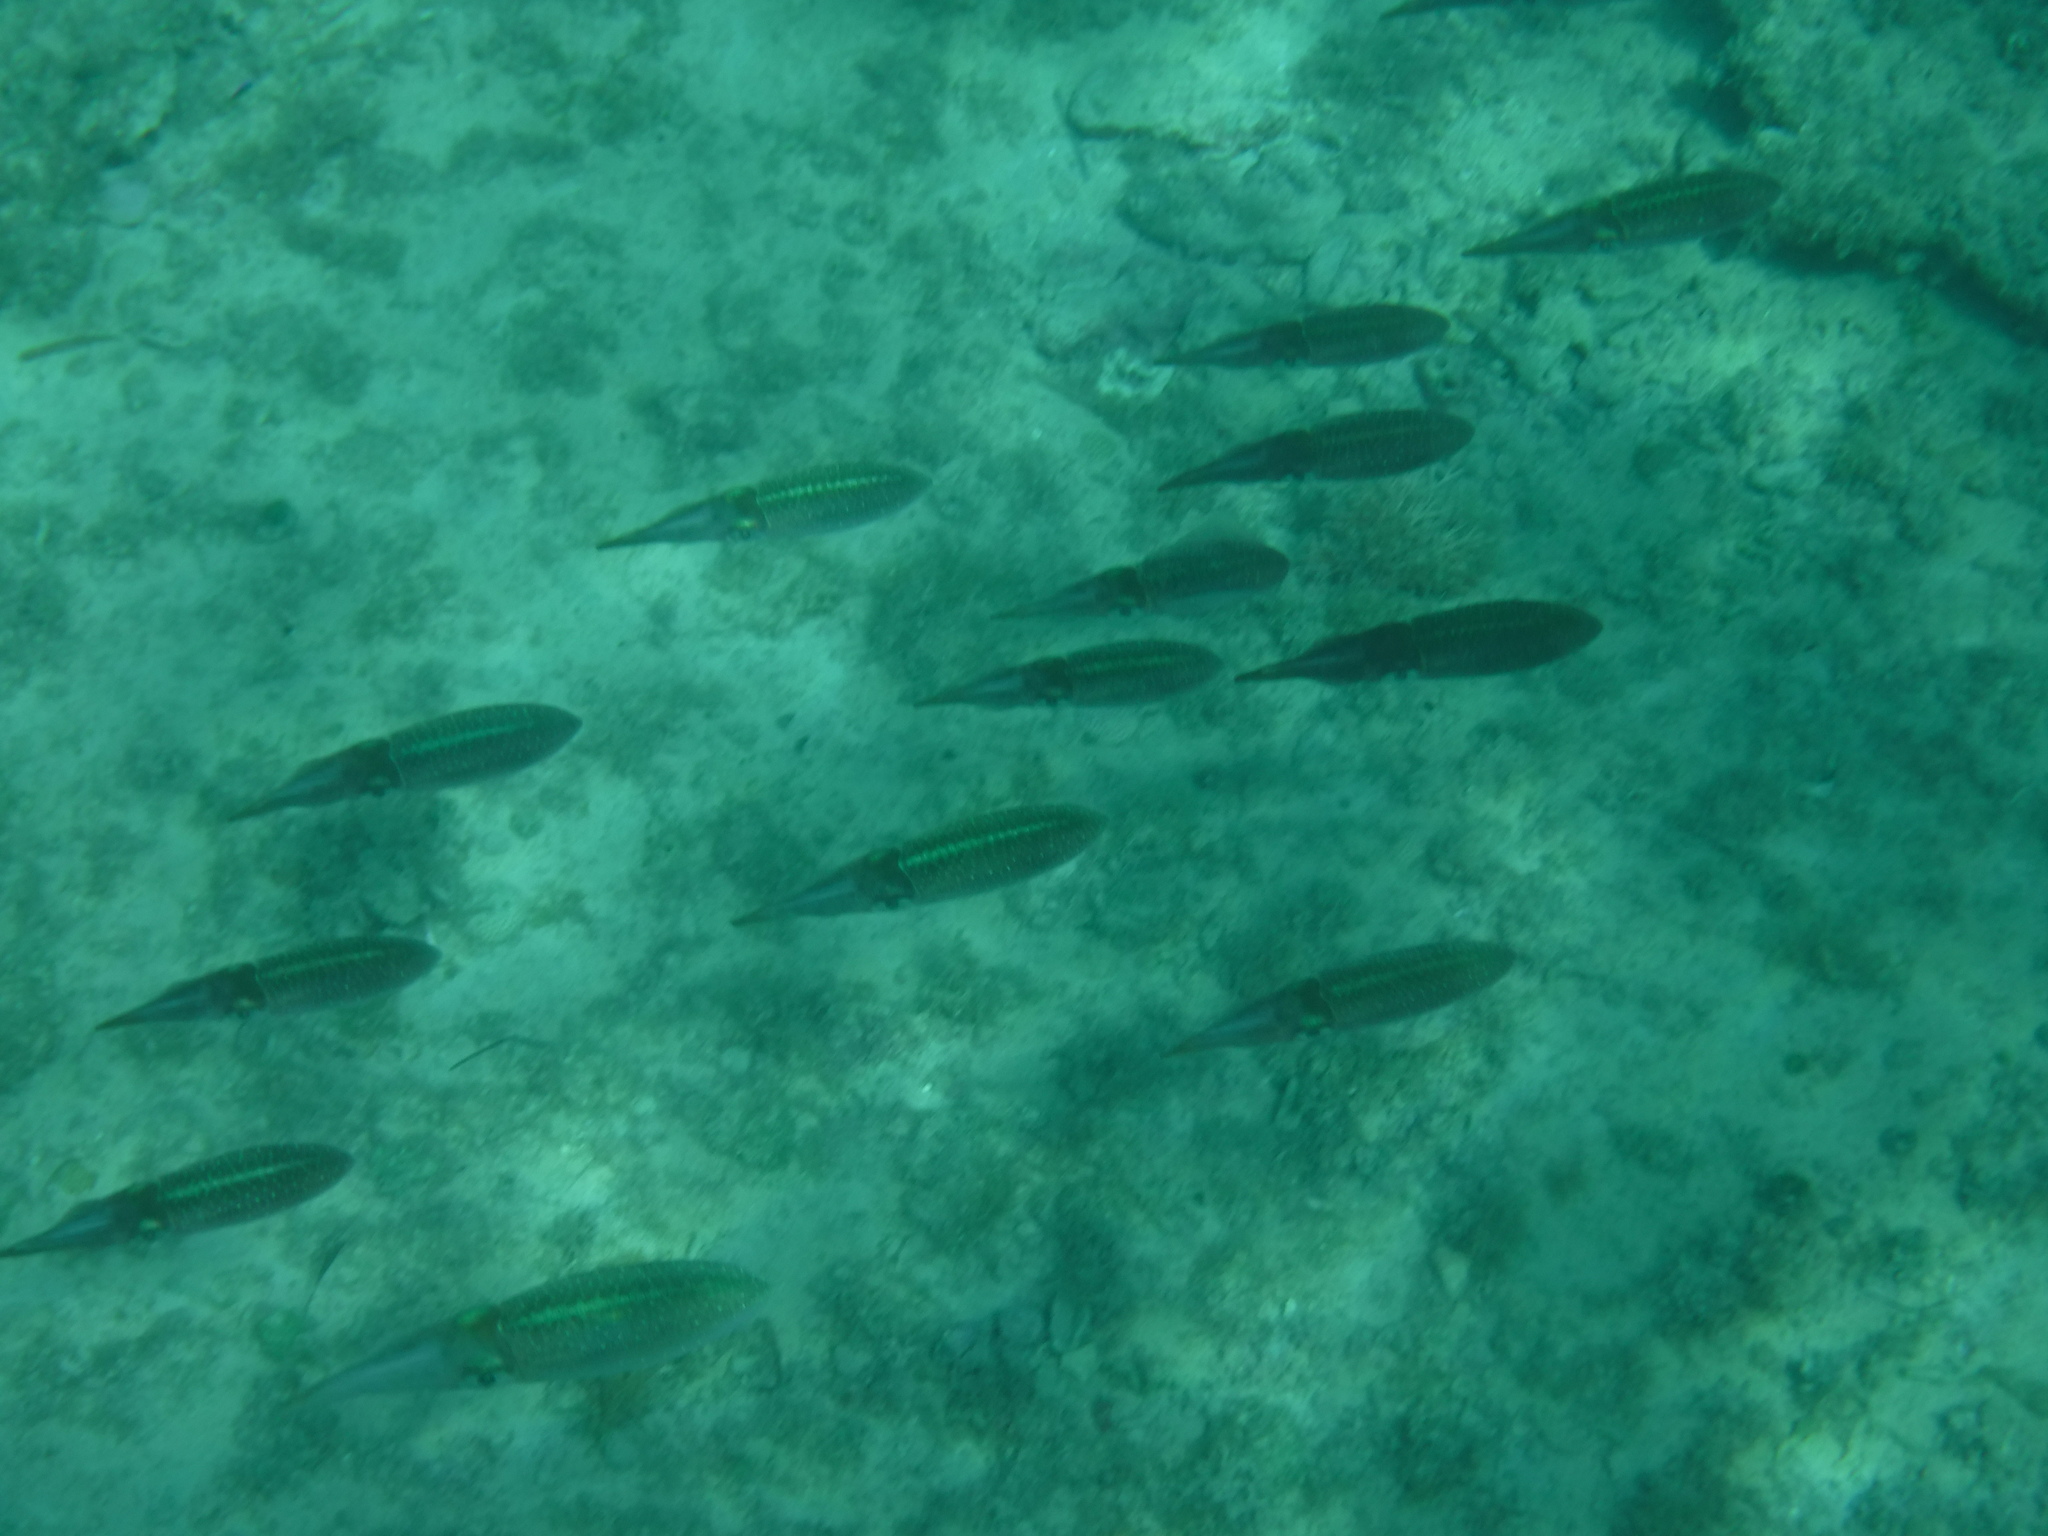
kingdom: Animalia
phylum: Mollusca
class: Cephalopoda
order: Myopsida
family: Loliginidae
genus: Sepioteuthis
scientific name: Sepioteuthis sepioidea
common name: Caribbean reef squid
